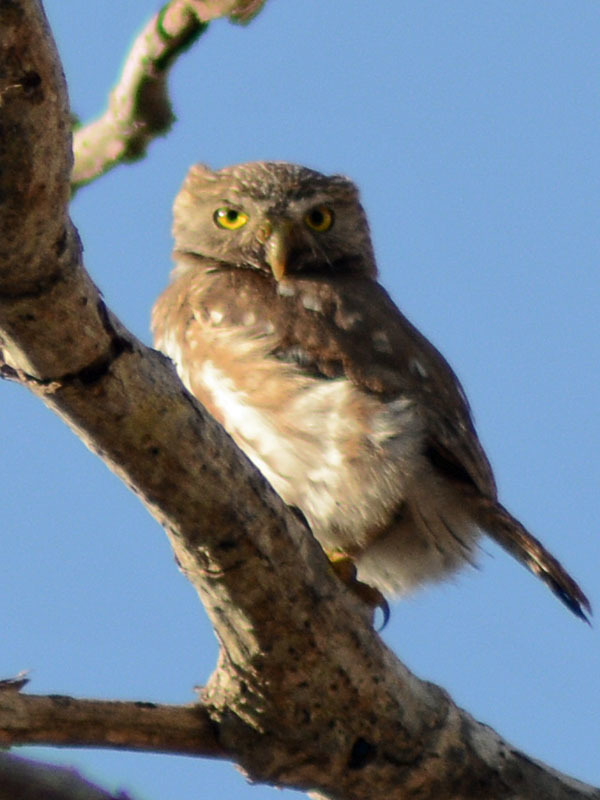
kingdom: Animalia
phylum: Chordata
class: Aves
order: Strigiformes
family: Strigidae
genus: Glaucidium
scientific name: Glaucidium brasilianum
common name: Ferruginous pygmy-owl
